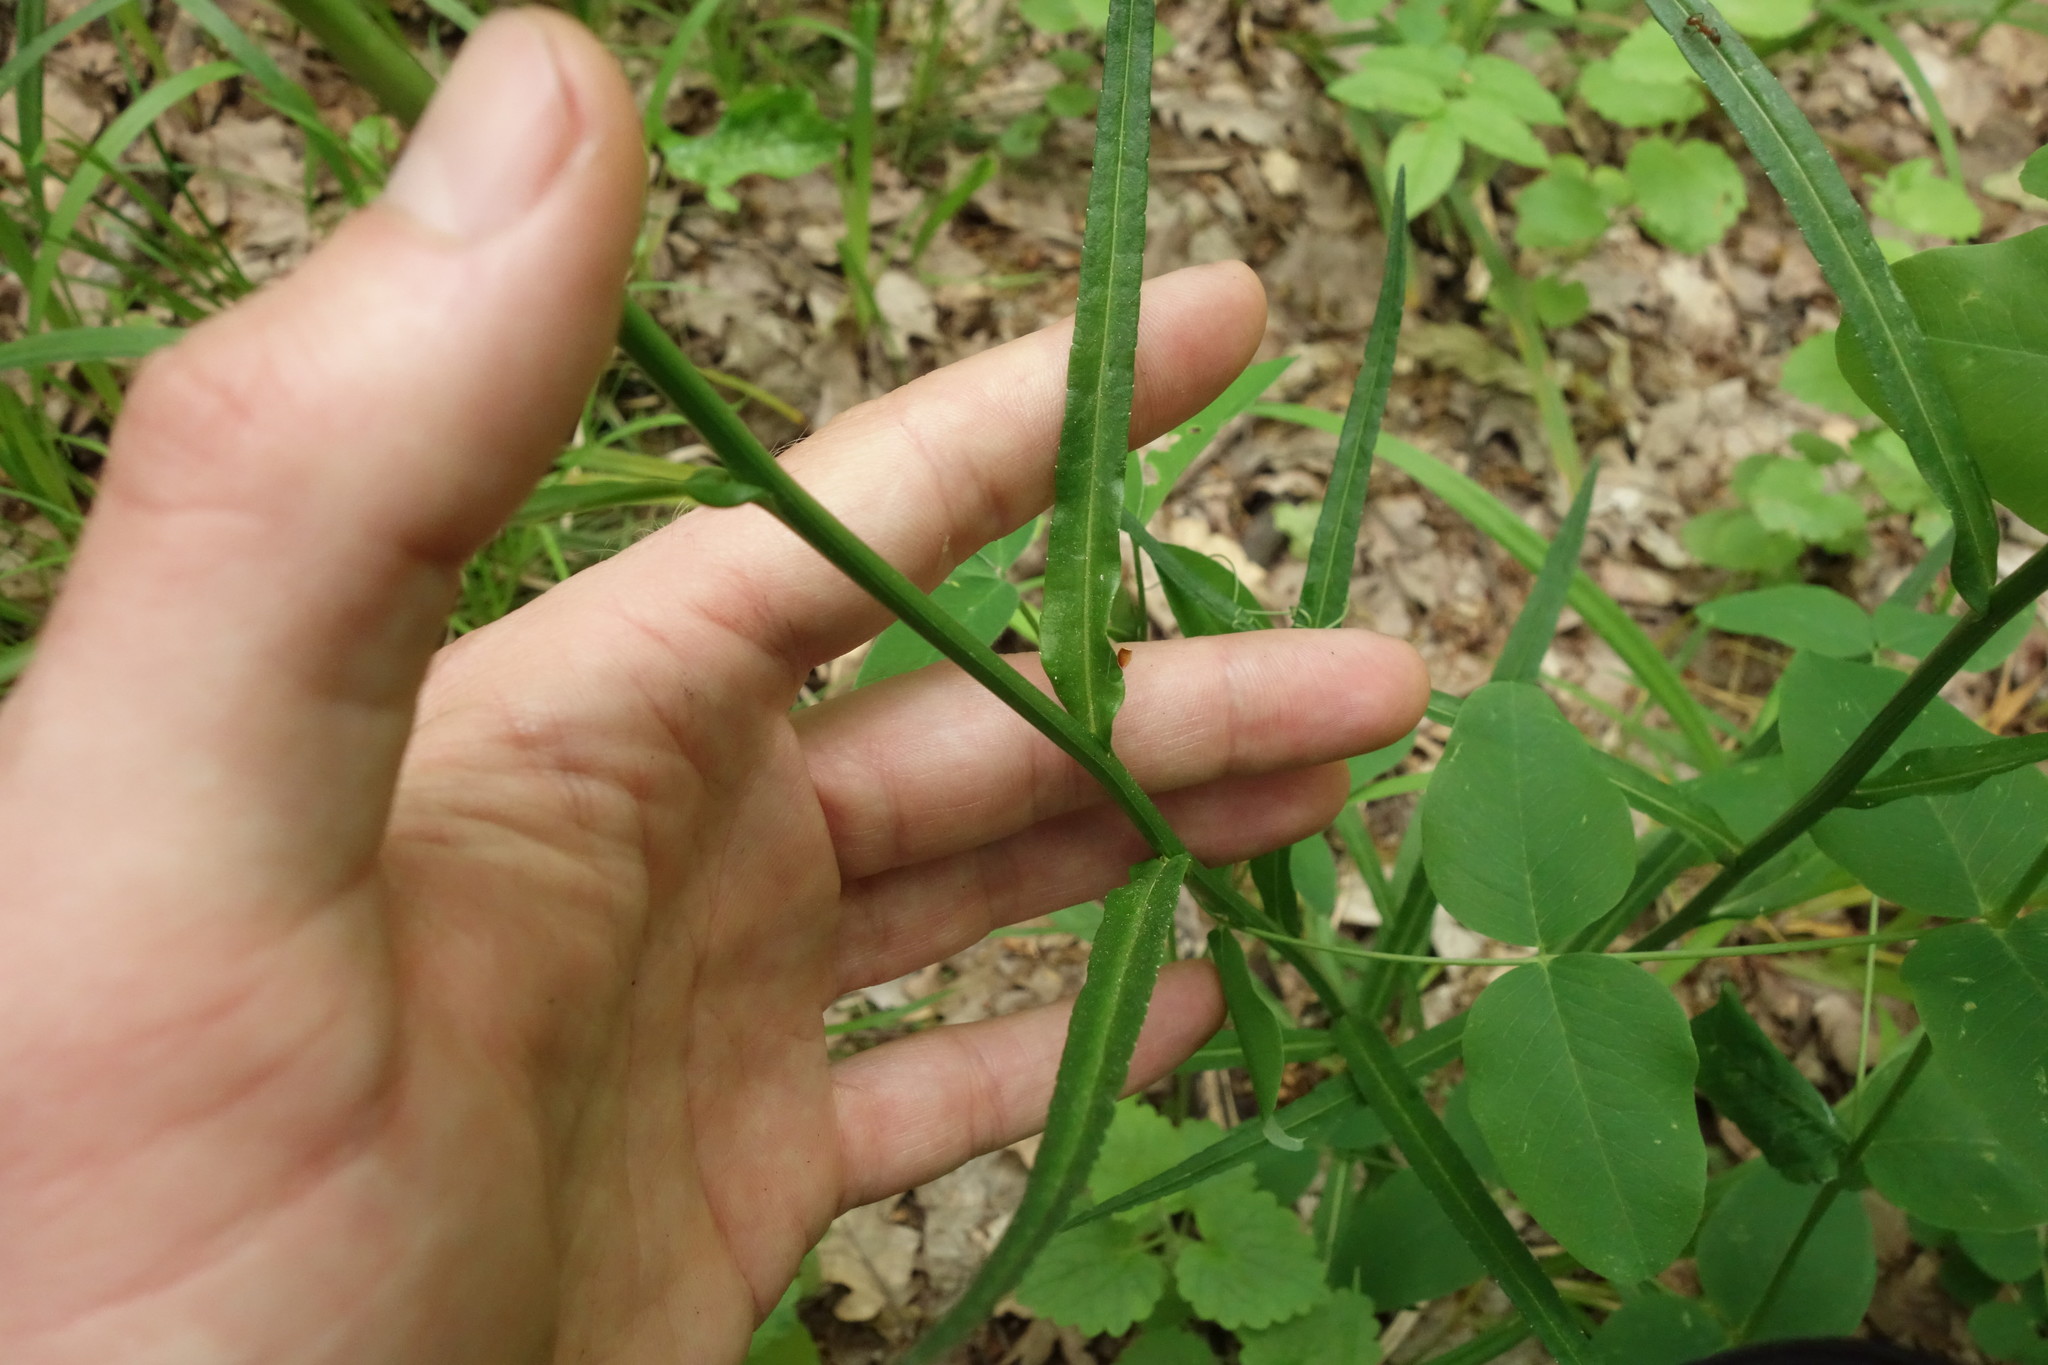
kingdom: Plantae
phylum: Tracheophyta
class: Magnoliopsida
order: Asterales
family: Campanulaceae
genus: Campanula
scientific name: Campanula persicifolia
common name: Peach-leaved bellflower
